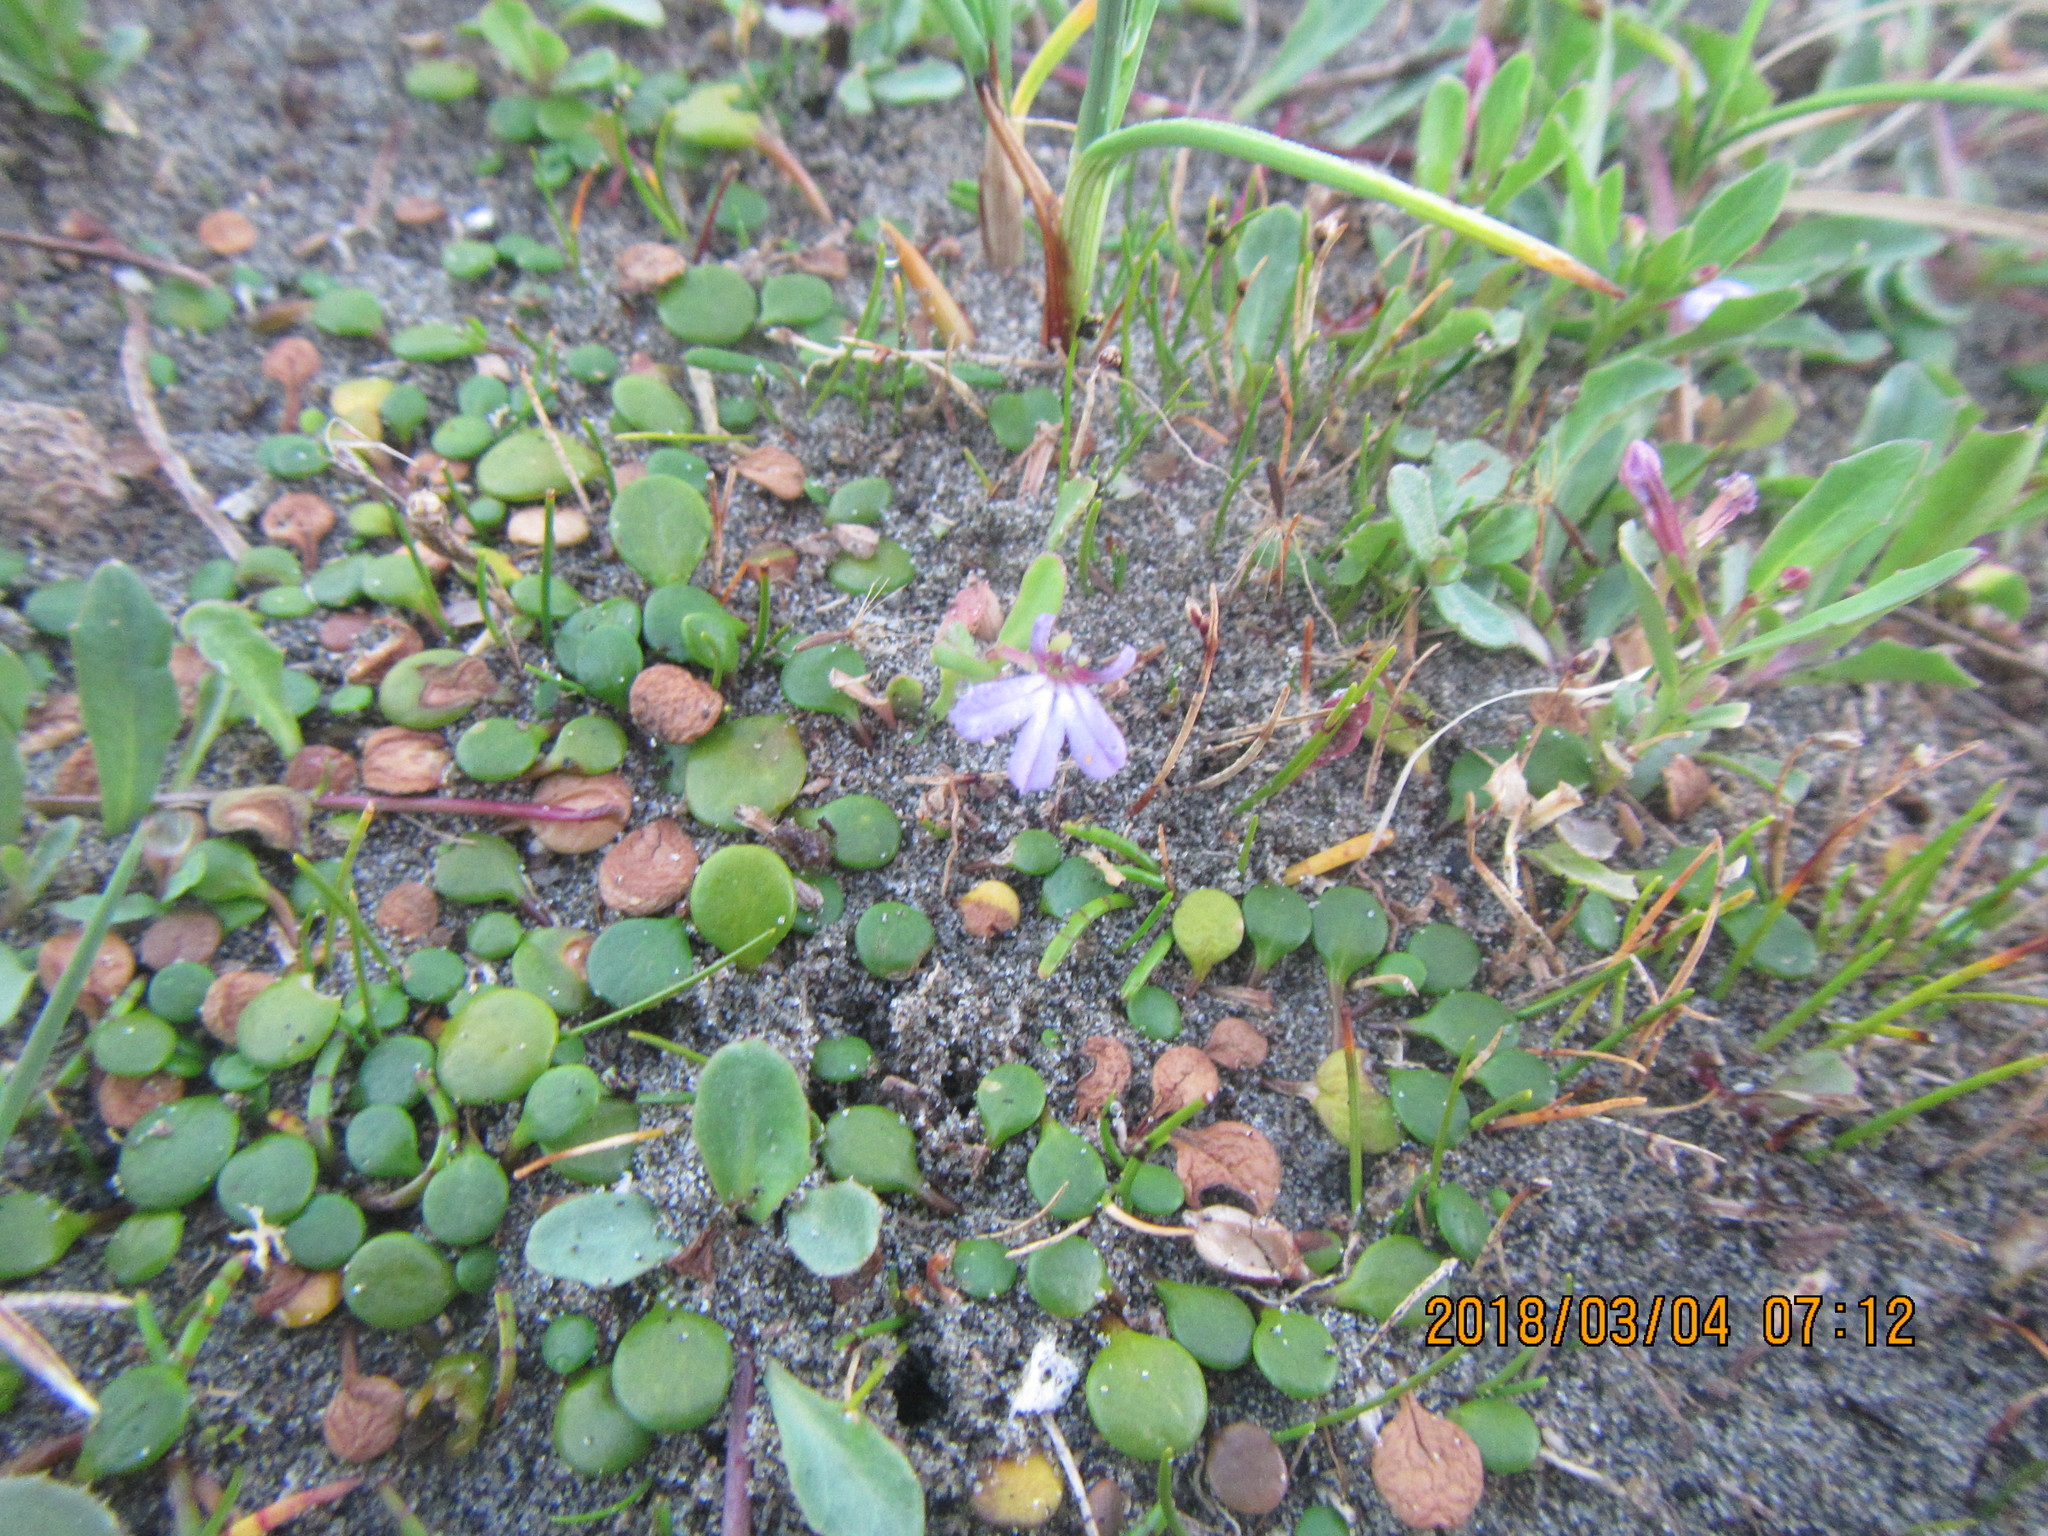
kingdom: Plantae
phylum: Tracheophyta
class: Magnoliopsida
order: Asterales
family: Goodeniaceae
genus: Goodenia
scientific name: Goodenia heenanii
